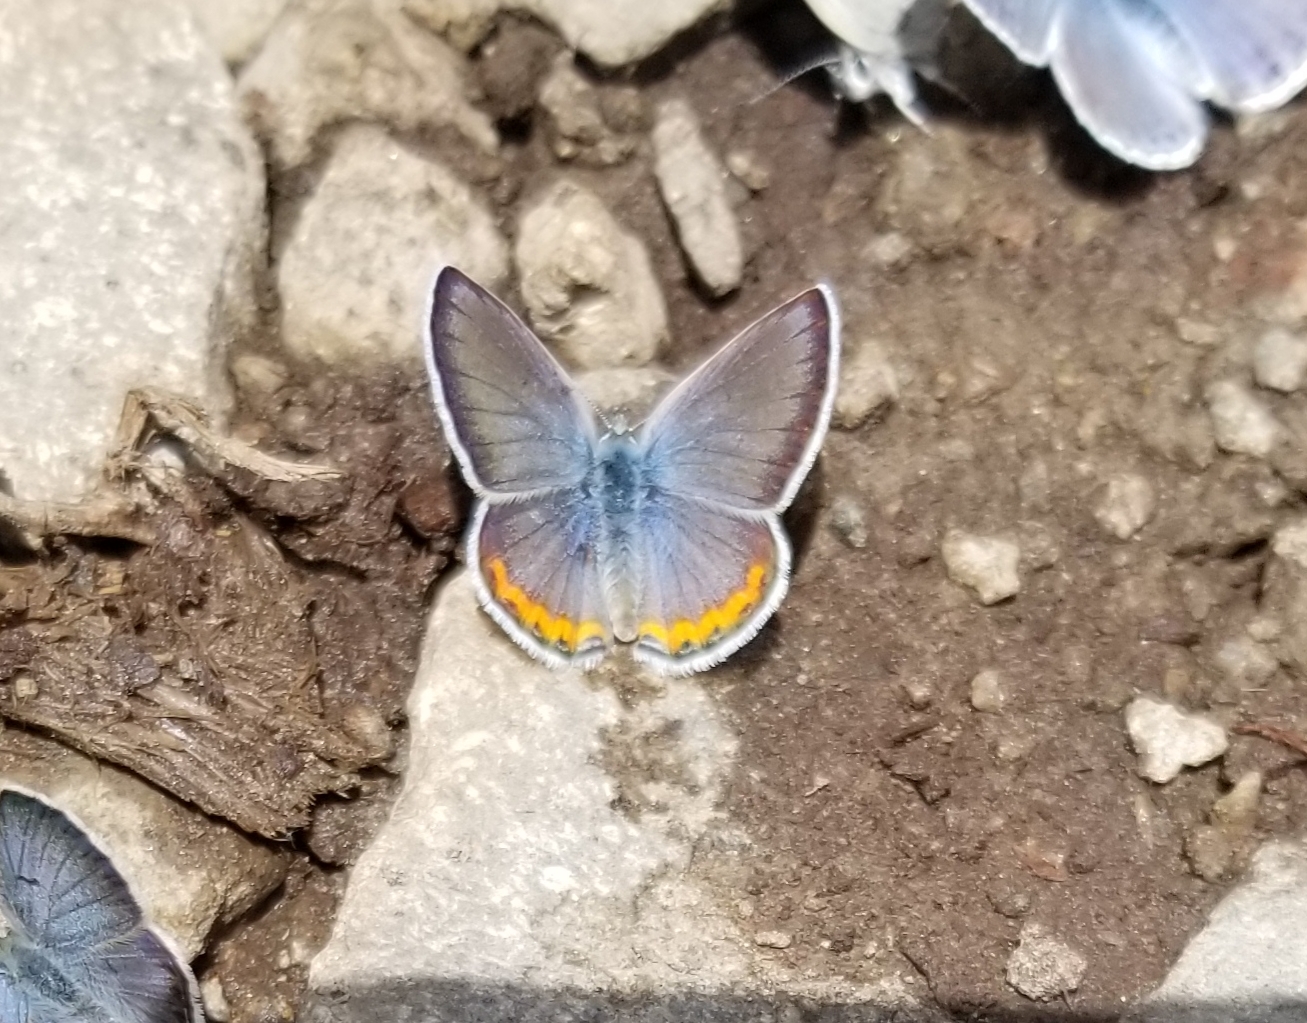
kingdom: Animalia
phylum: Arthropoda
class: Insecta
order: Lepidoptera
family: Lycaenidae
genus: Icaricia
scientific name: Icaricia lupini
